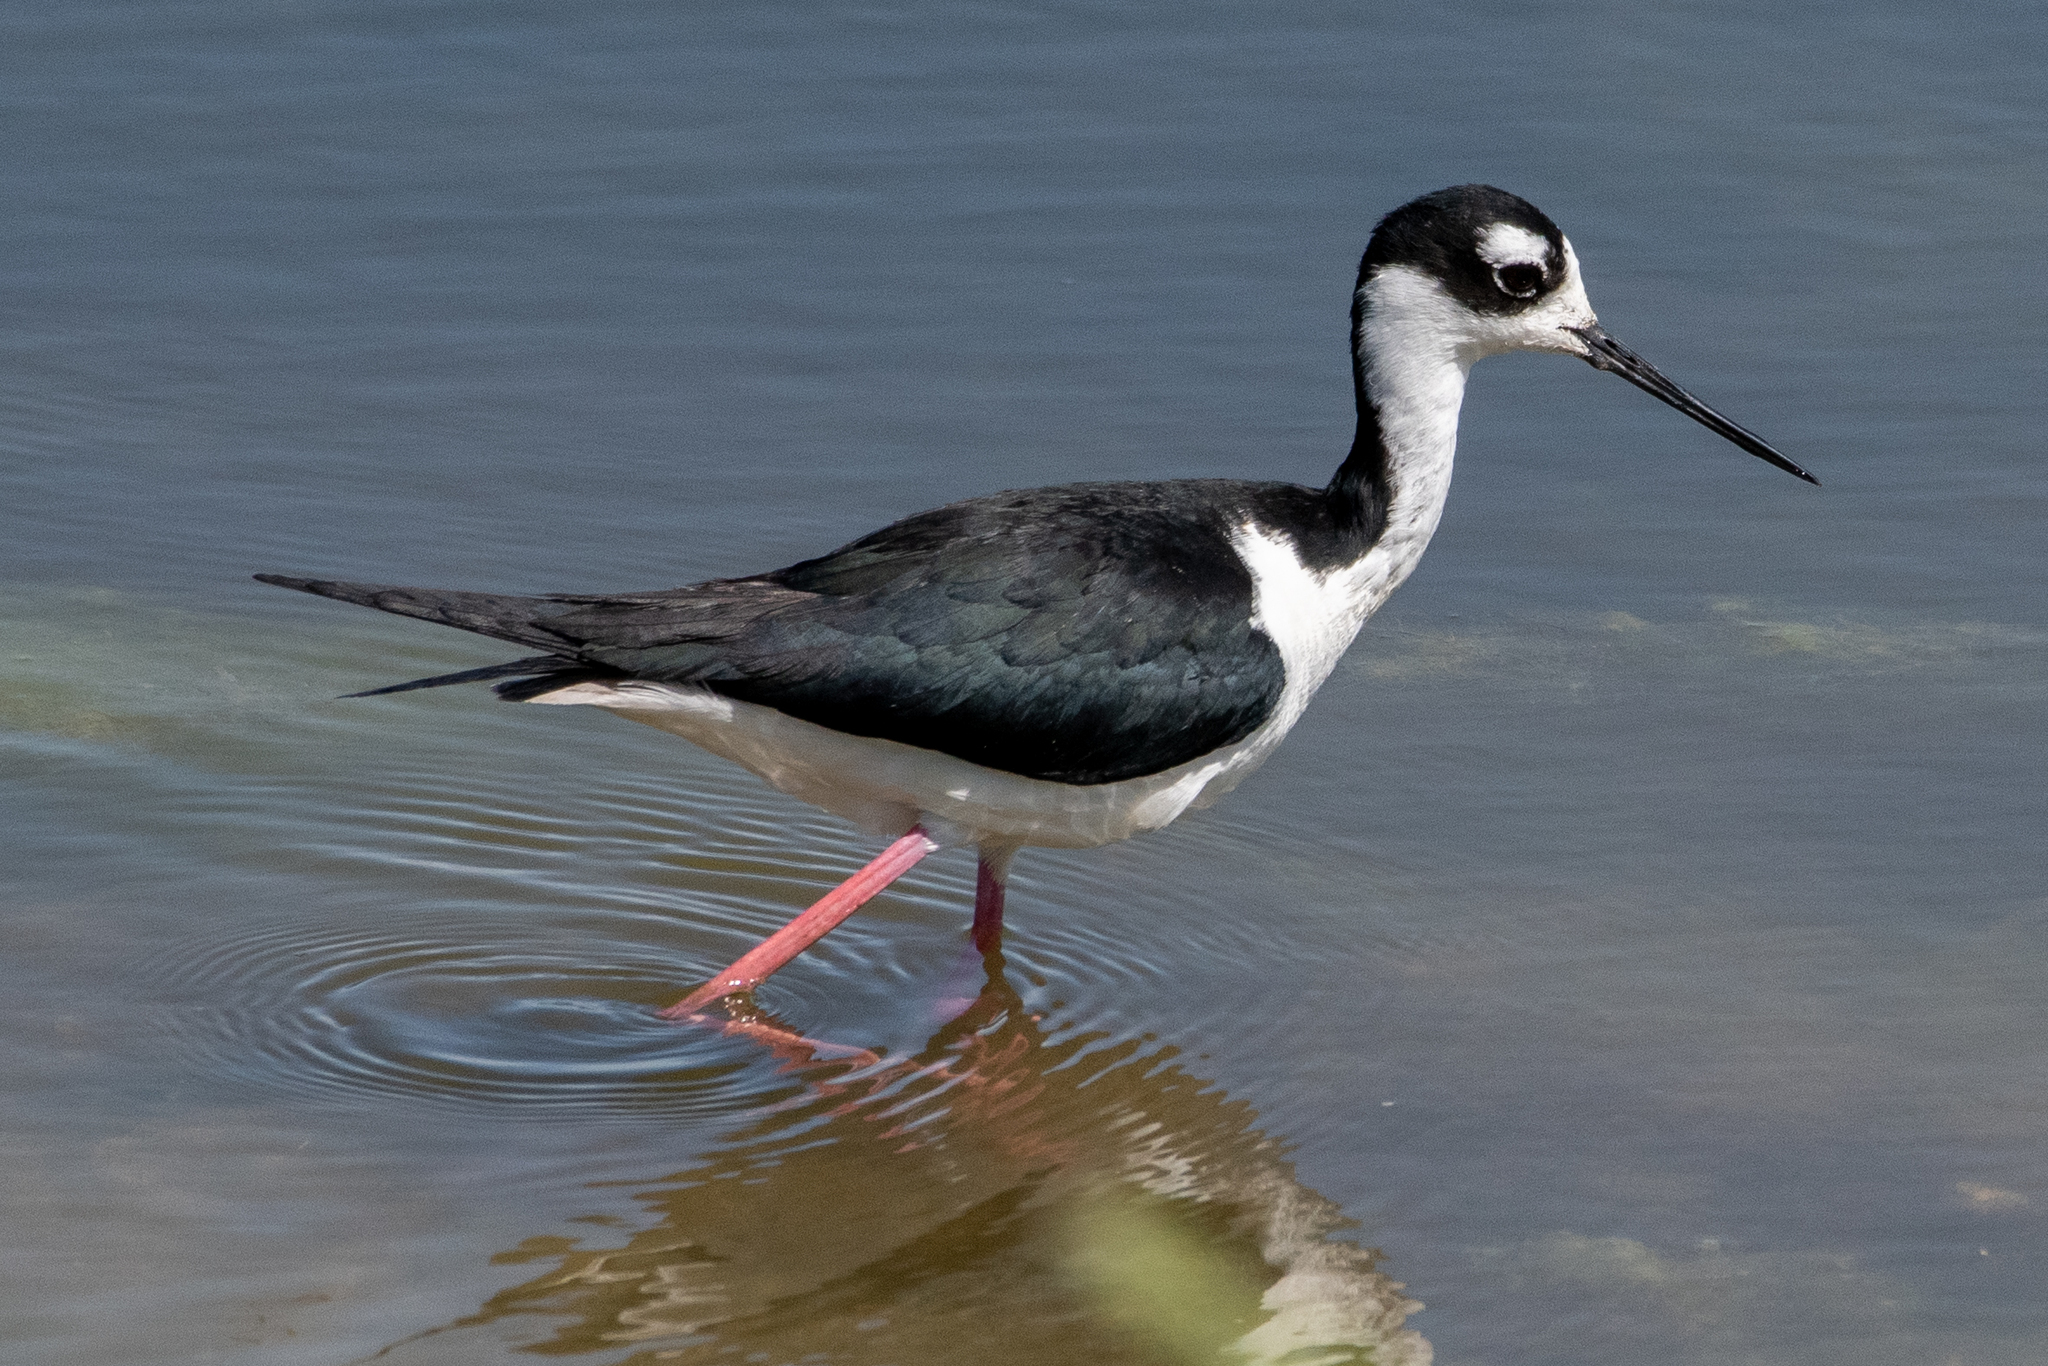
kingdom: Animalia
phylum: Chordata
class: Aves
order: Charadriiformes
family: Recurvirostridae
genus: Himantopus
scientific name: Himantopus mexicanus
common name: Black-necked stilt
